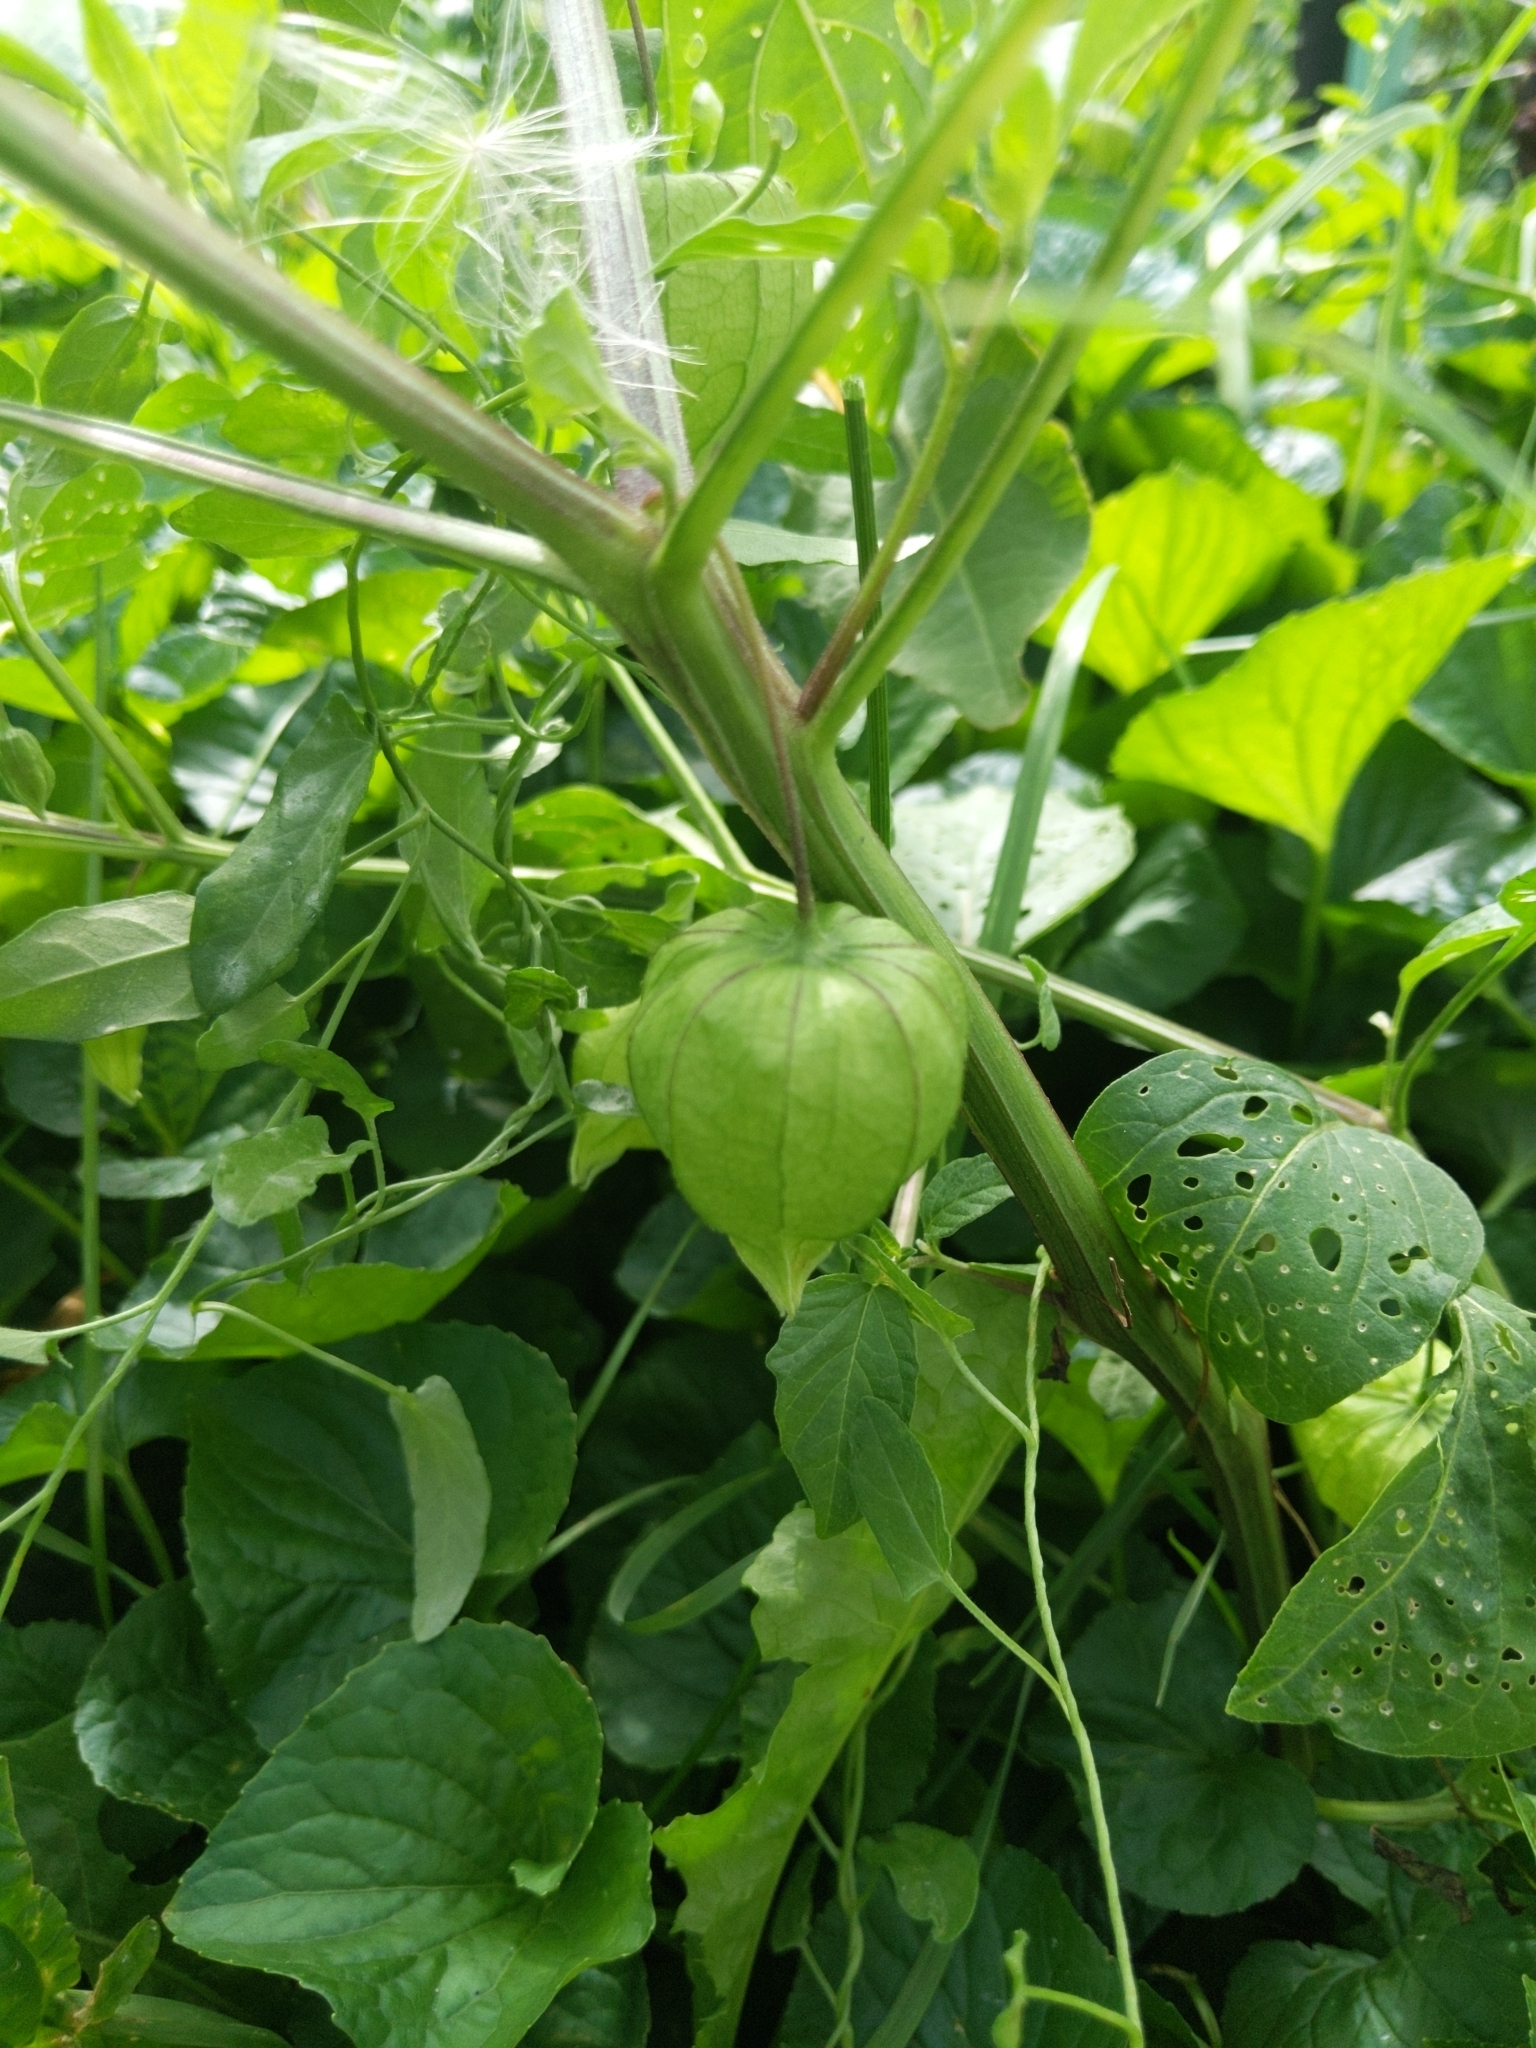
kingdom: Plantae
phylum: Tracheophyta
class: Magnoliopsida
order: Solanales
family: Solanaceae
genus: Physalis
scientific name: Physalis longifolia
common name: Common ground-cherry
